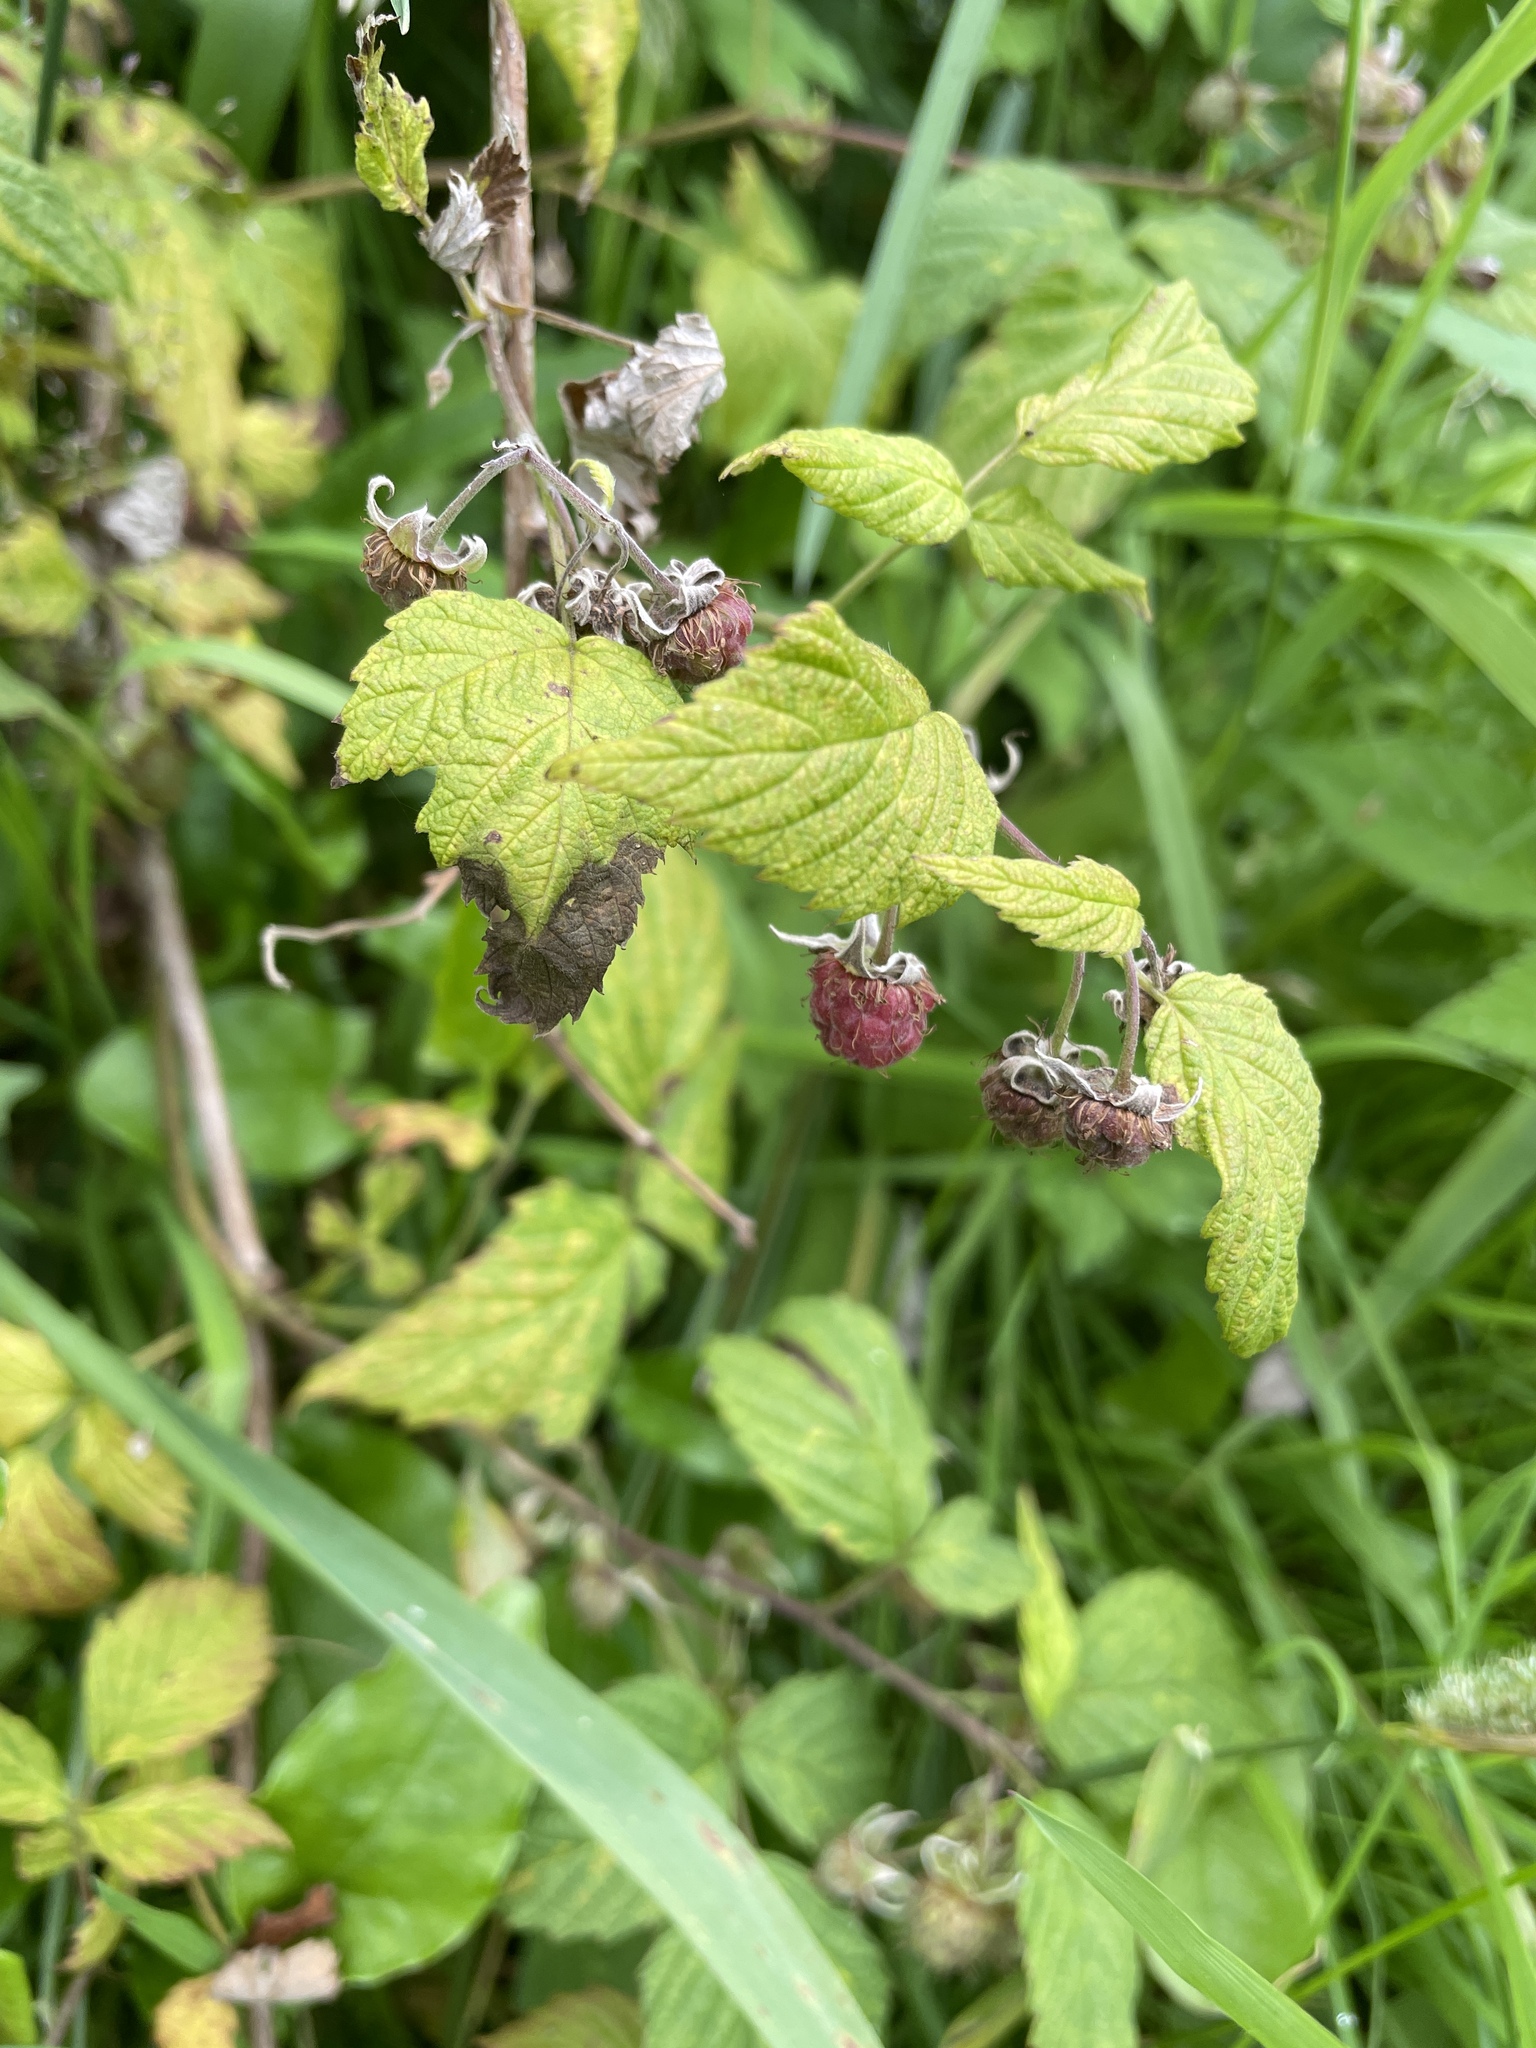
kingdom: Plantae
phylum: Tracheophyta
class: Magnoliopsida
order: Rosales
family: Rosaceae
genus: Rubus
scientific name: Rubus idaeus
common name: Raspberry
